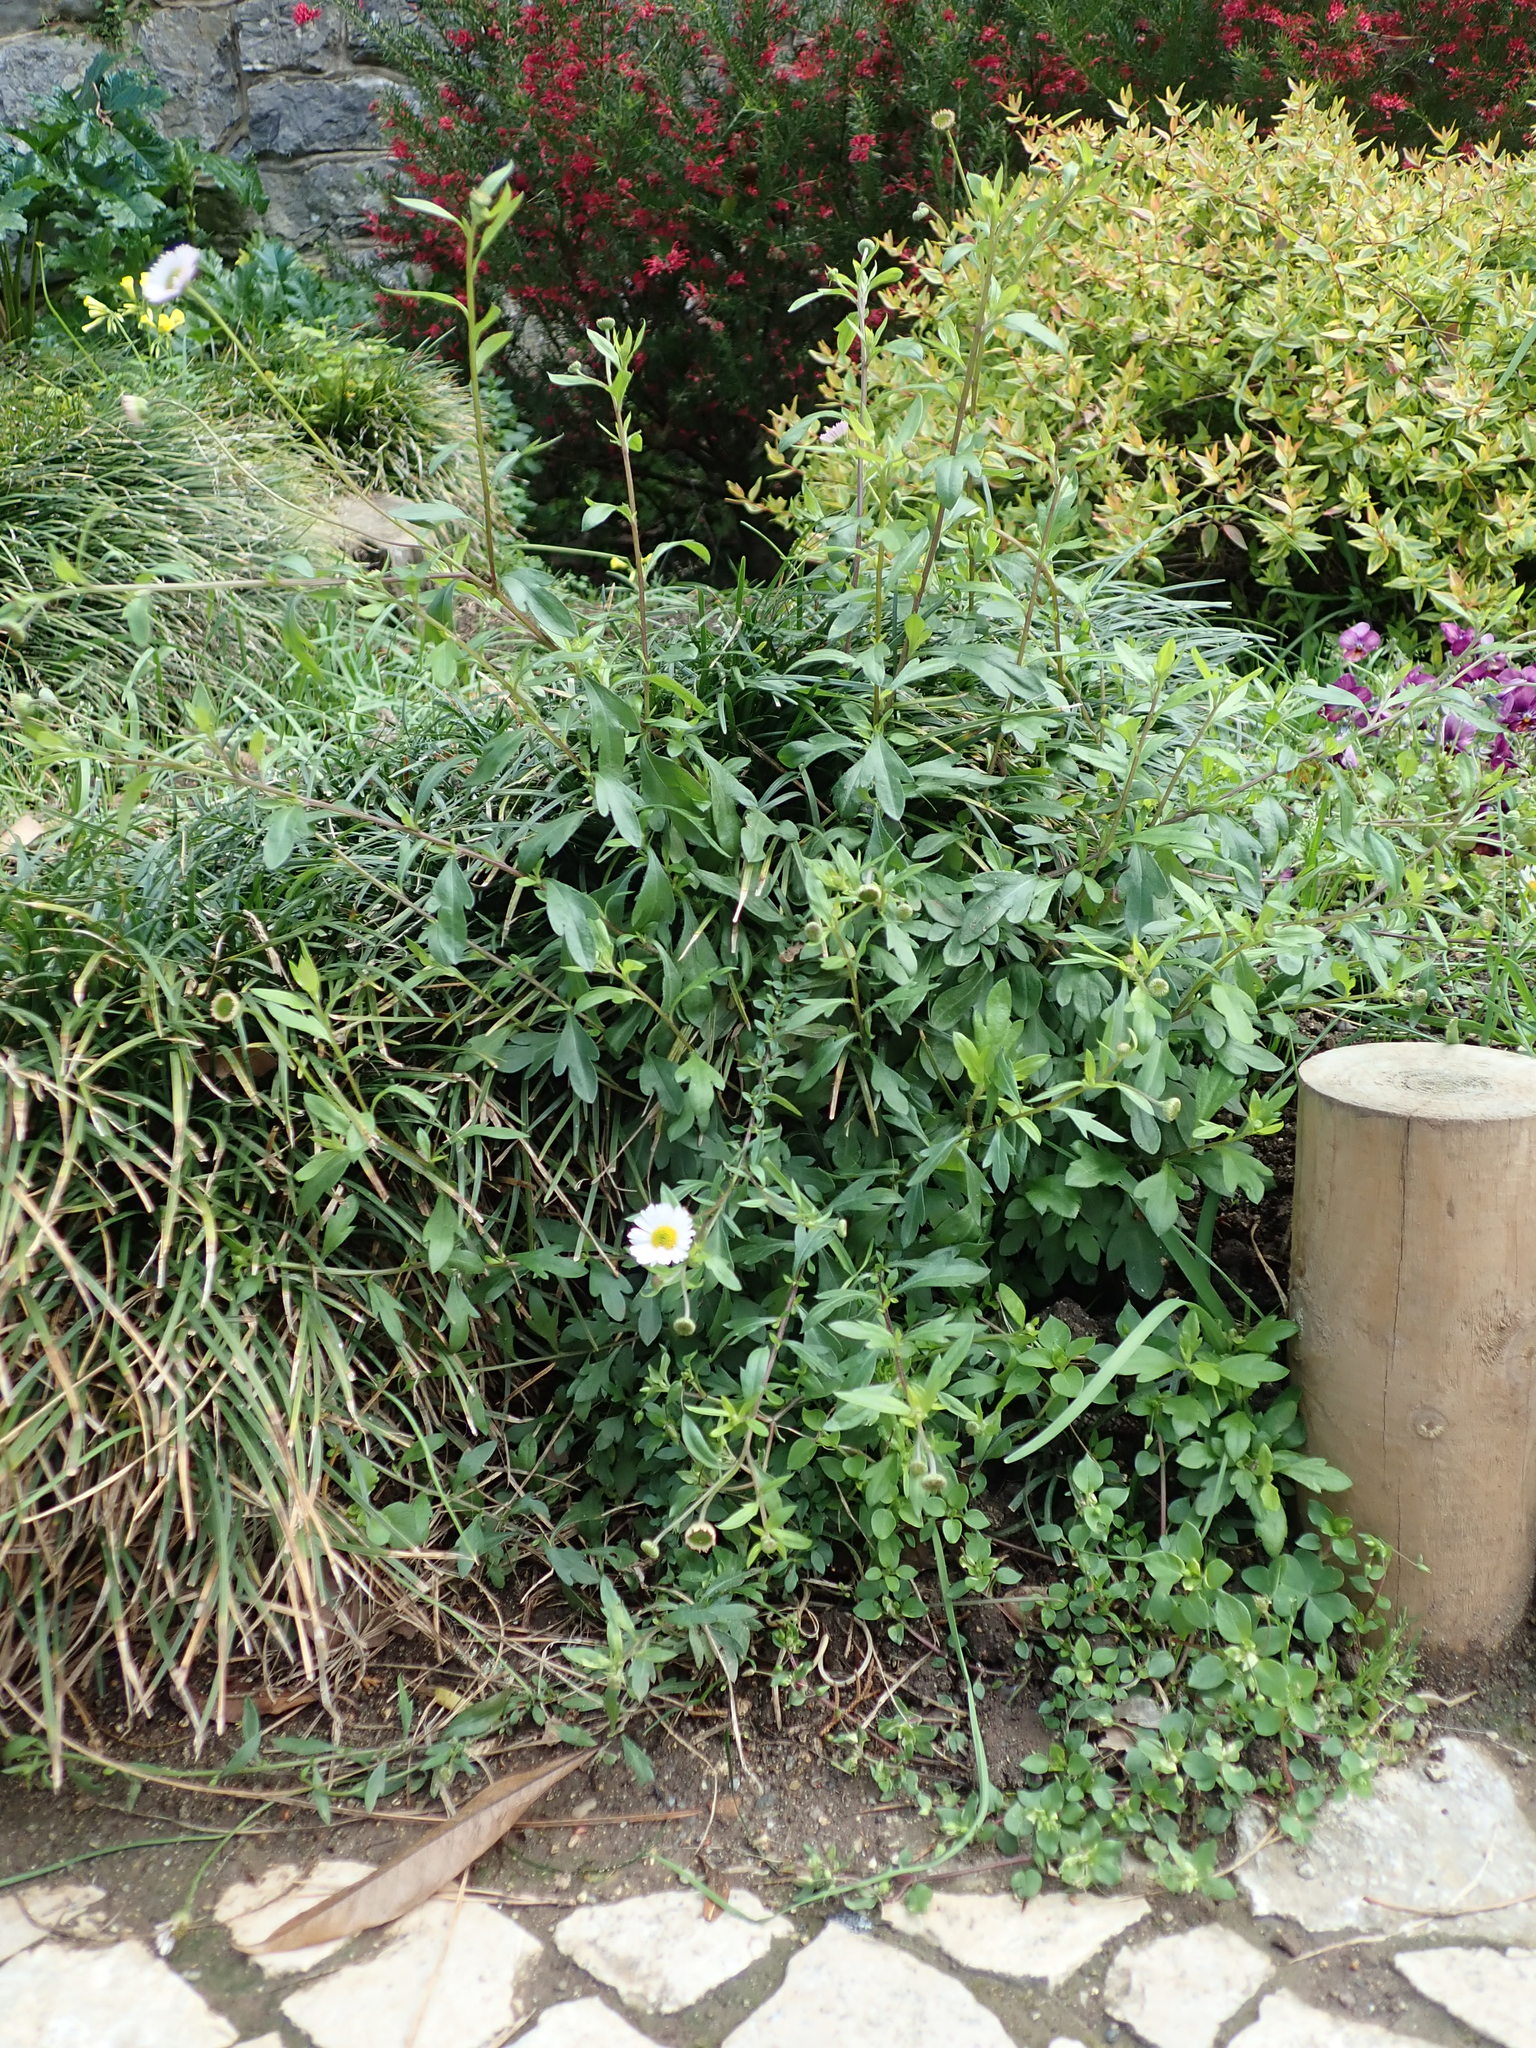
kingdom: Plantae
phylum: Tracheophyta
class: Magnoliopsida
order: Asterales
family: Asteraceae
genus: Erigeron
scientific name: Erigeron karvinskianus
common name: Mexican fleabane
